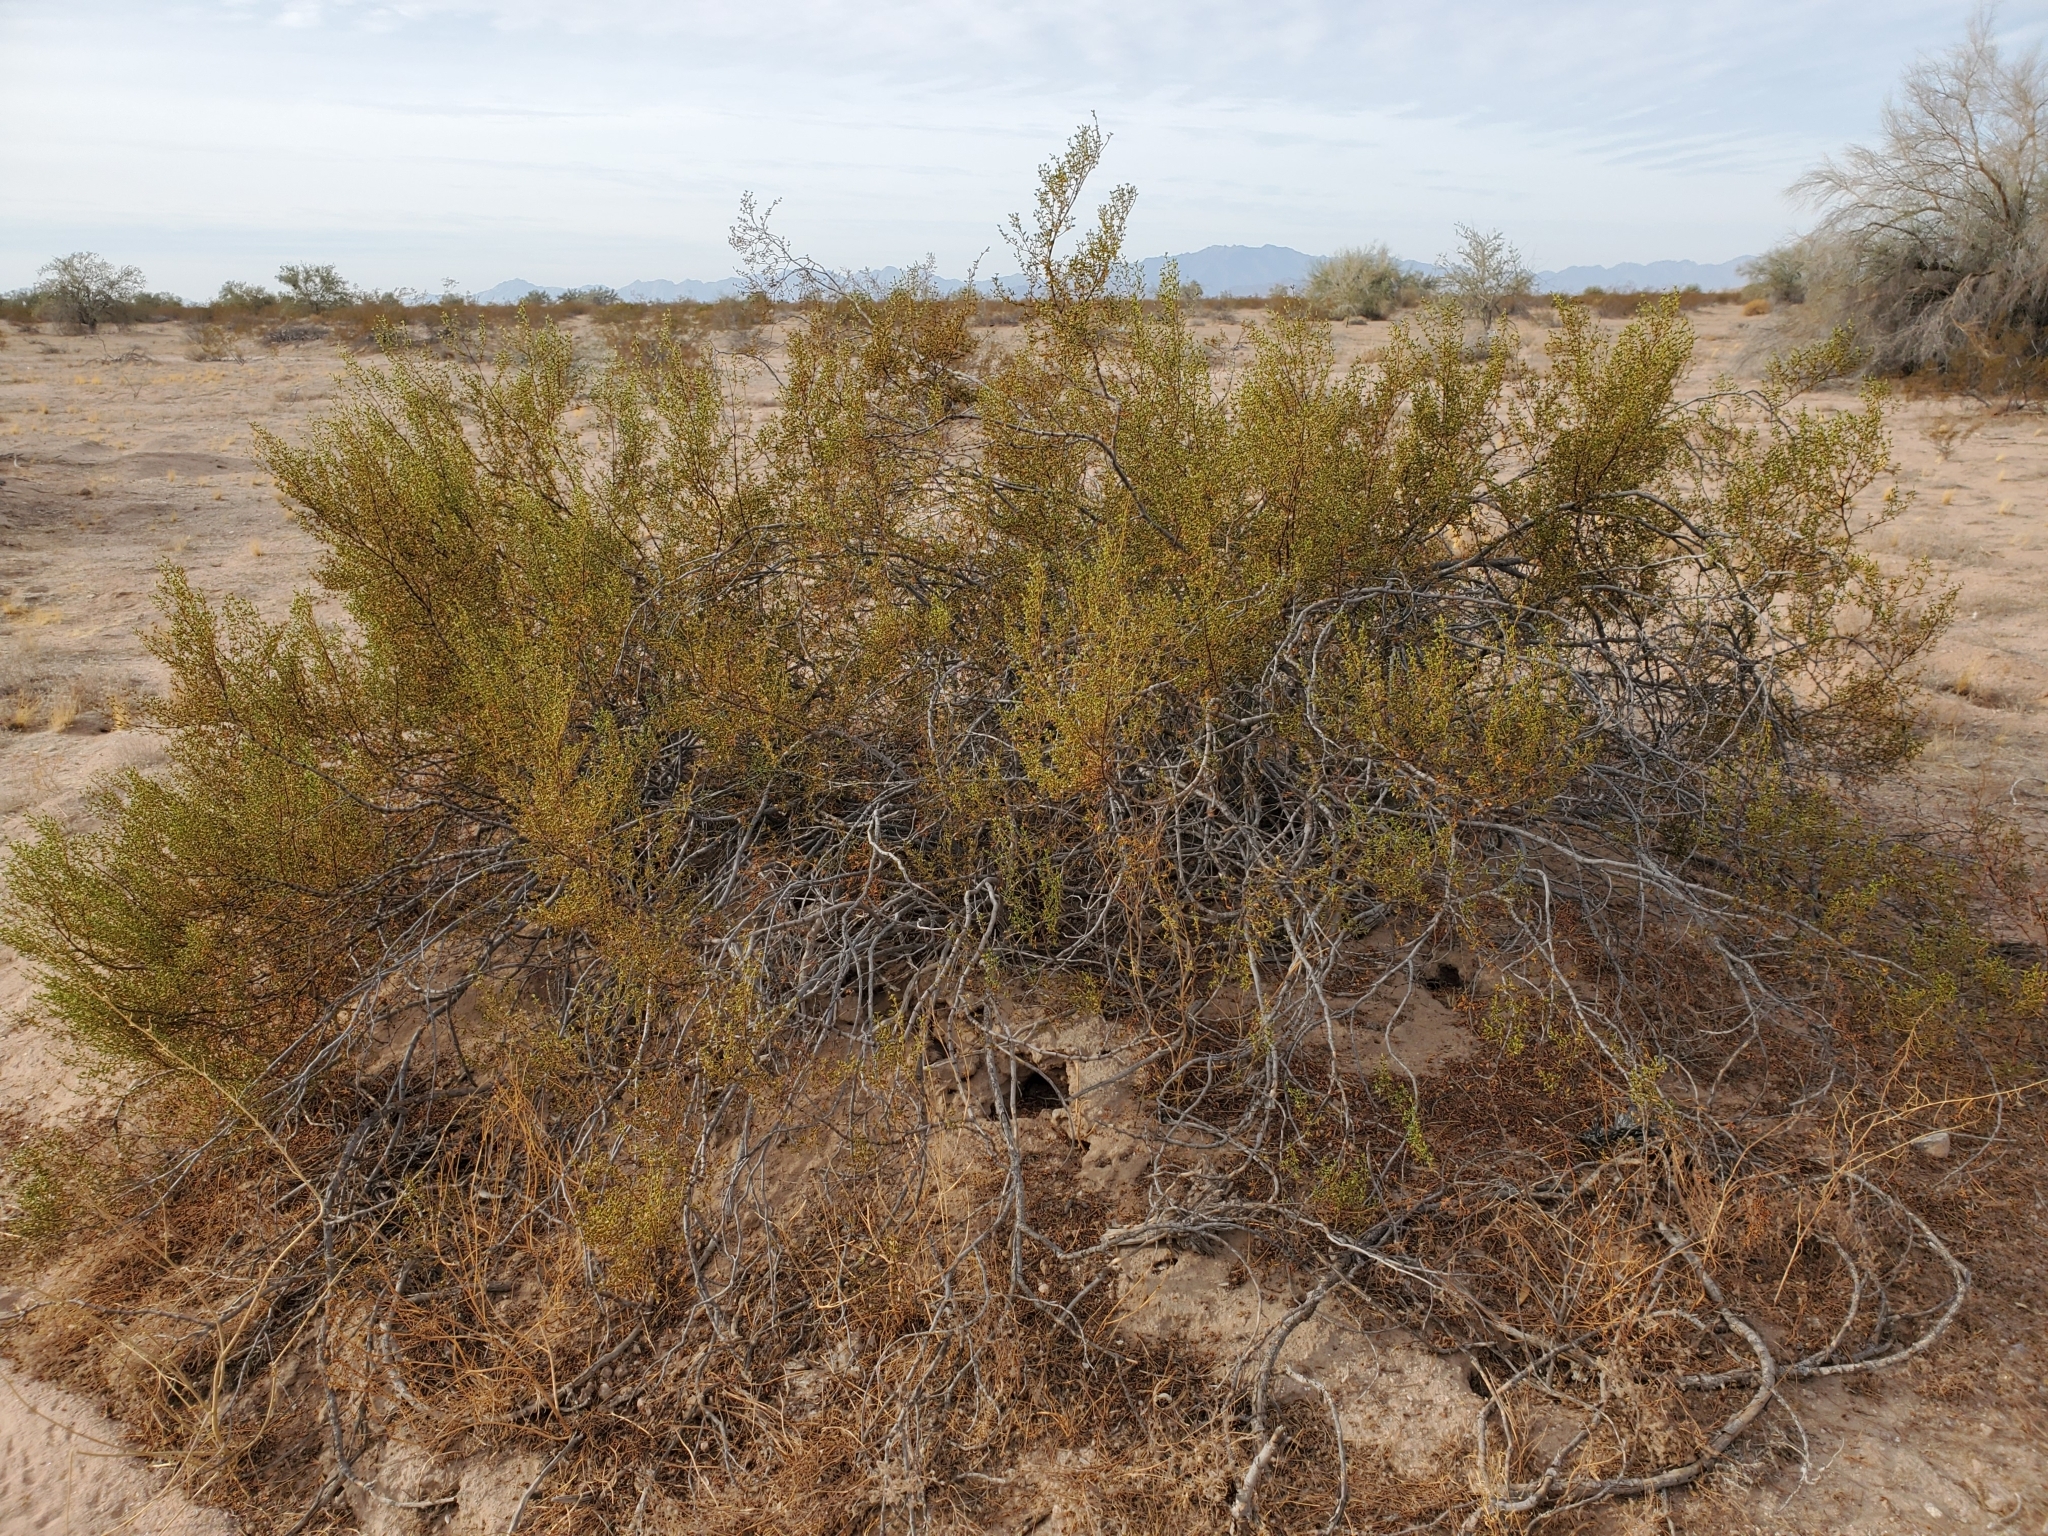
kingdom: Plantae
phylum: Tracheophyta
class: Magnoliopsida
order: Zygophyllales
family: Zygophyllaceae
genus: Larrea
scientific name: Larrea tridentata
